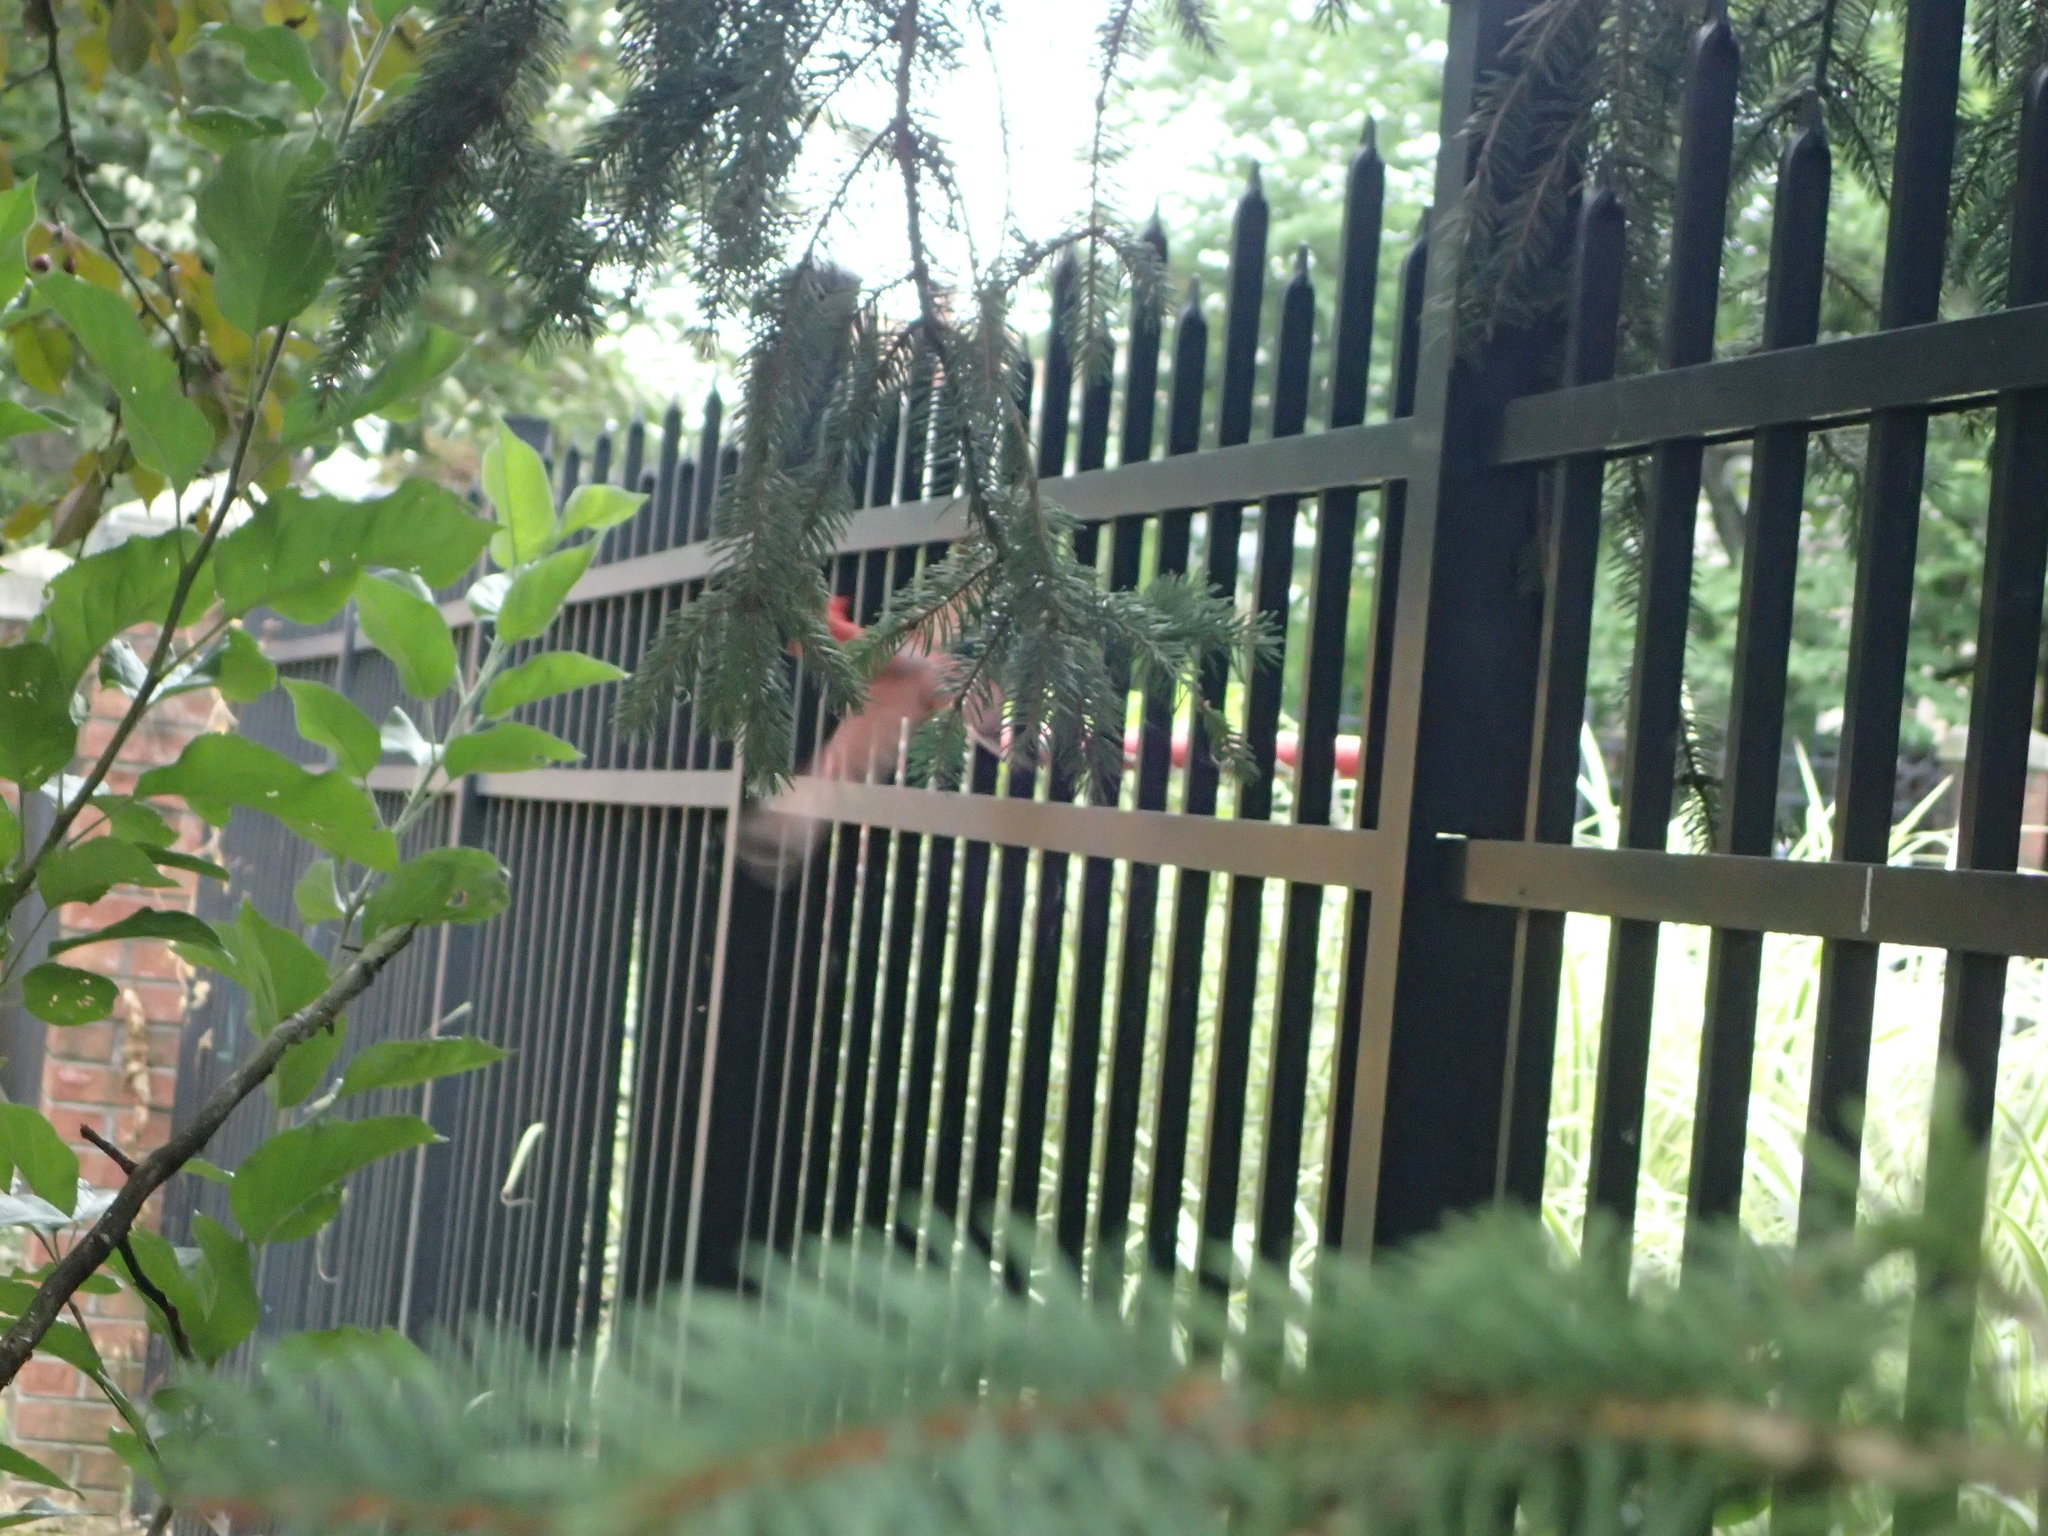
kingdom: Animalia
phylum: Chordata
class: Aves
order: Passeriformes
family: Cardinalidae
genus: Cardinalis
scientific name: Cardinalis cardinalis
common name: Northern cardinal
